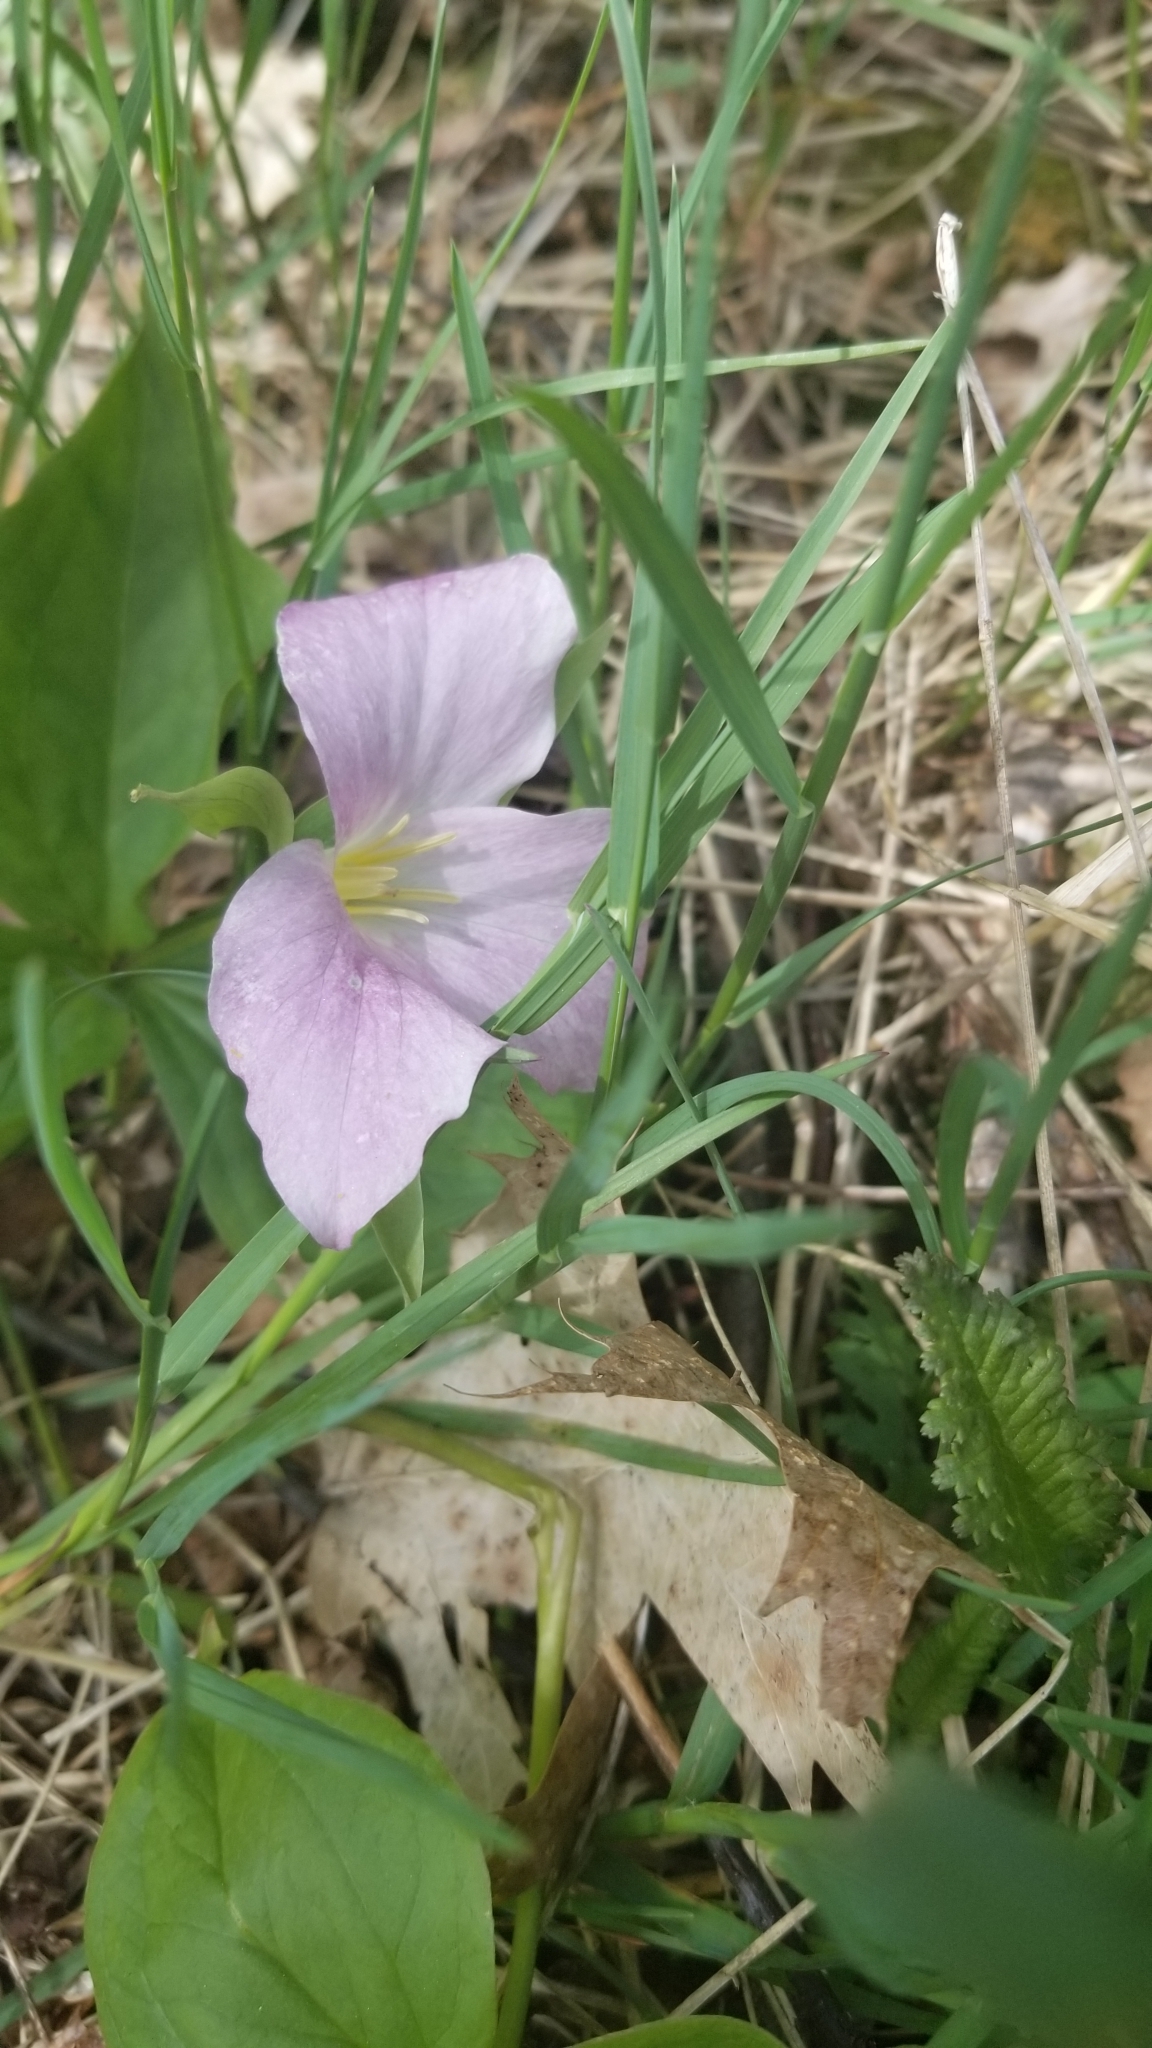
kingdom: Plantae
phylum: Tracheophyta
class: Liliopsida
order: Liliales
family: Melanthiaceae
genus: Trillium
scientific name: Trillium grandiflorum
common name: Great white trillium
